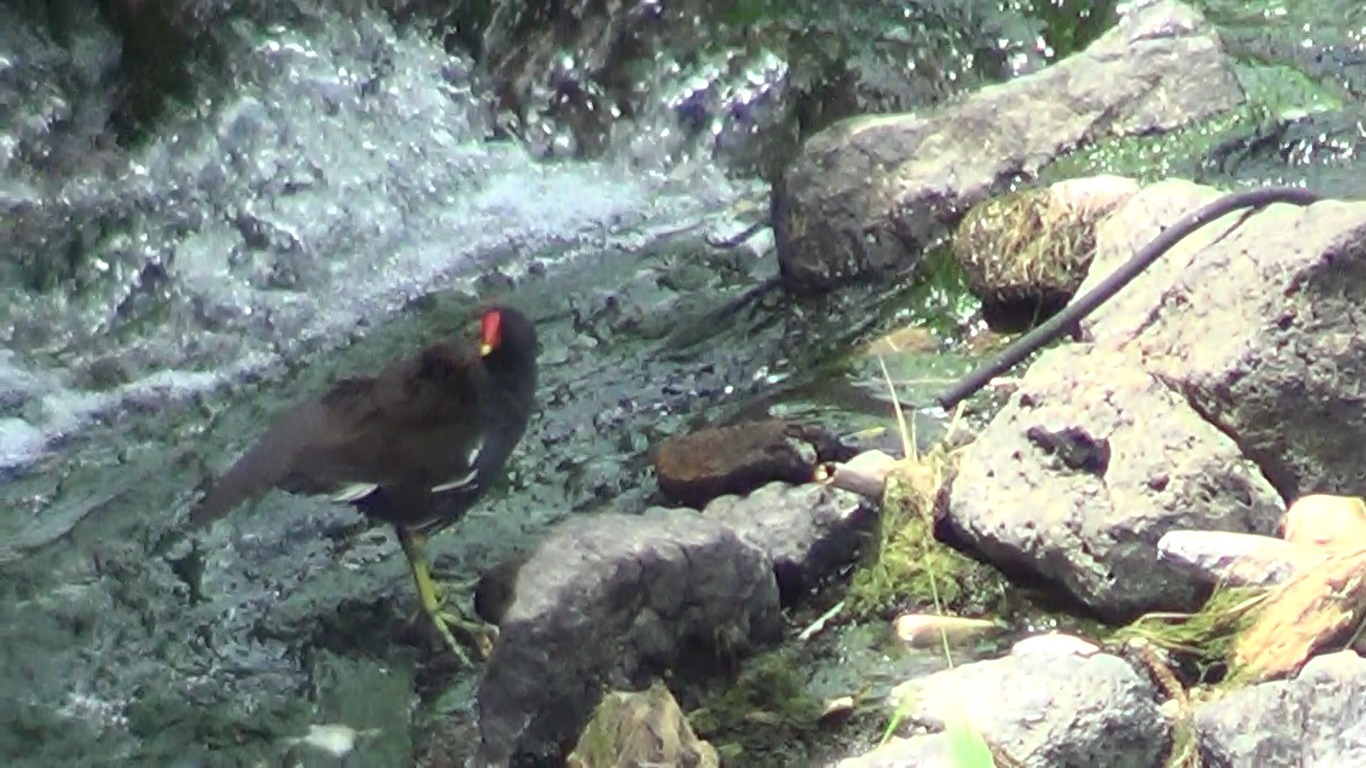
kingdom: Animalia
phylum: Chordata
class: Aves
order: Gruiformes
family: Rallidae
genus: Gallinula
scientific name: Gallinula chloropus
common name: Common moorhen
